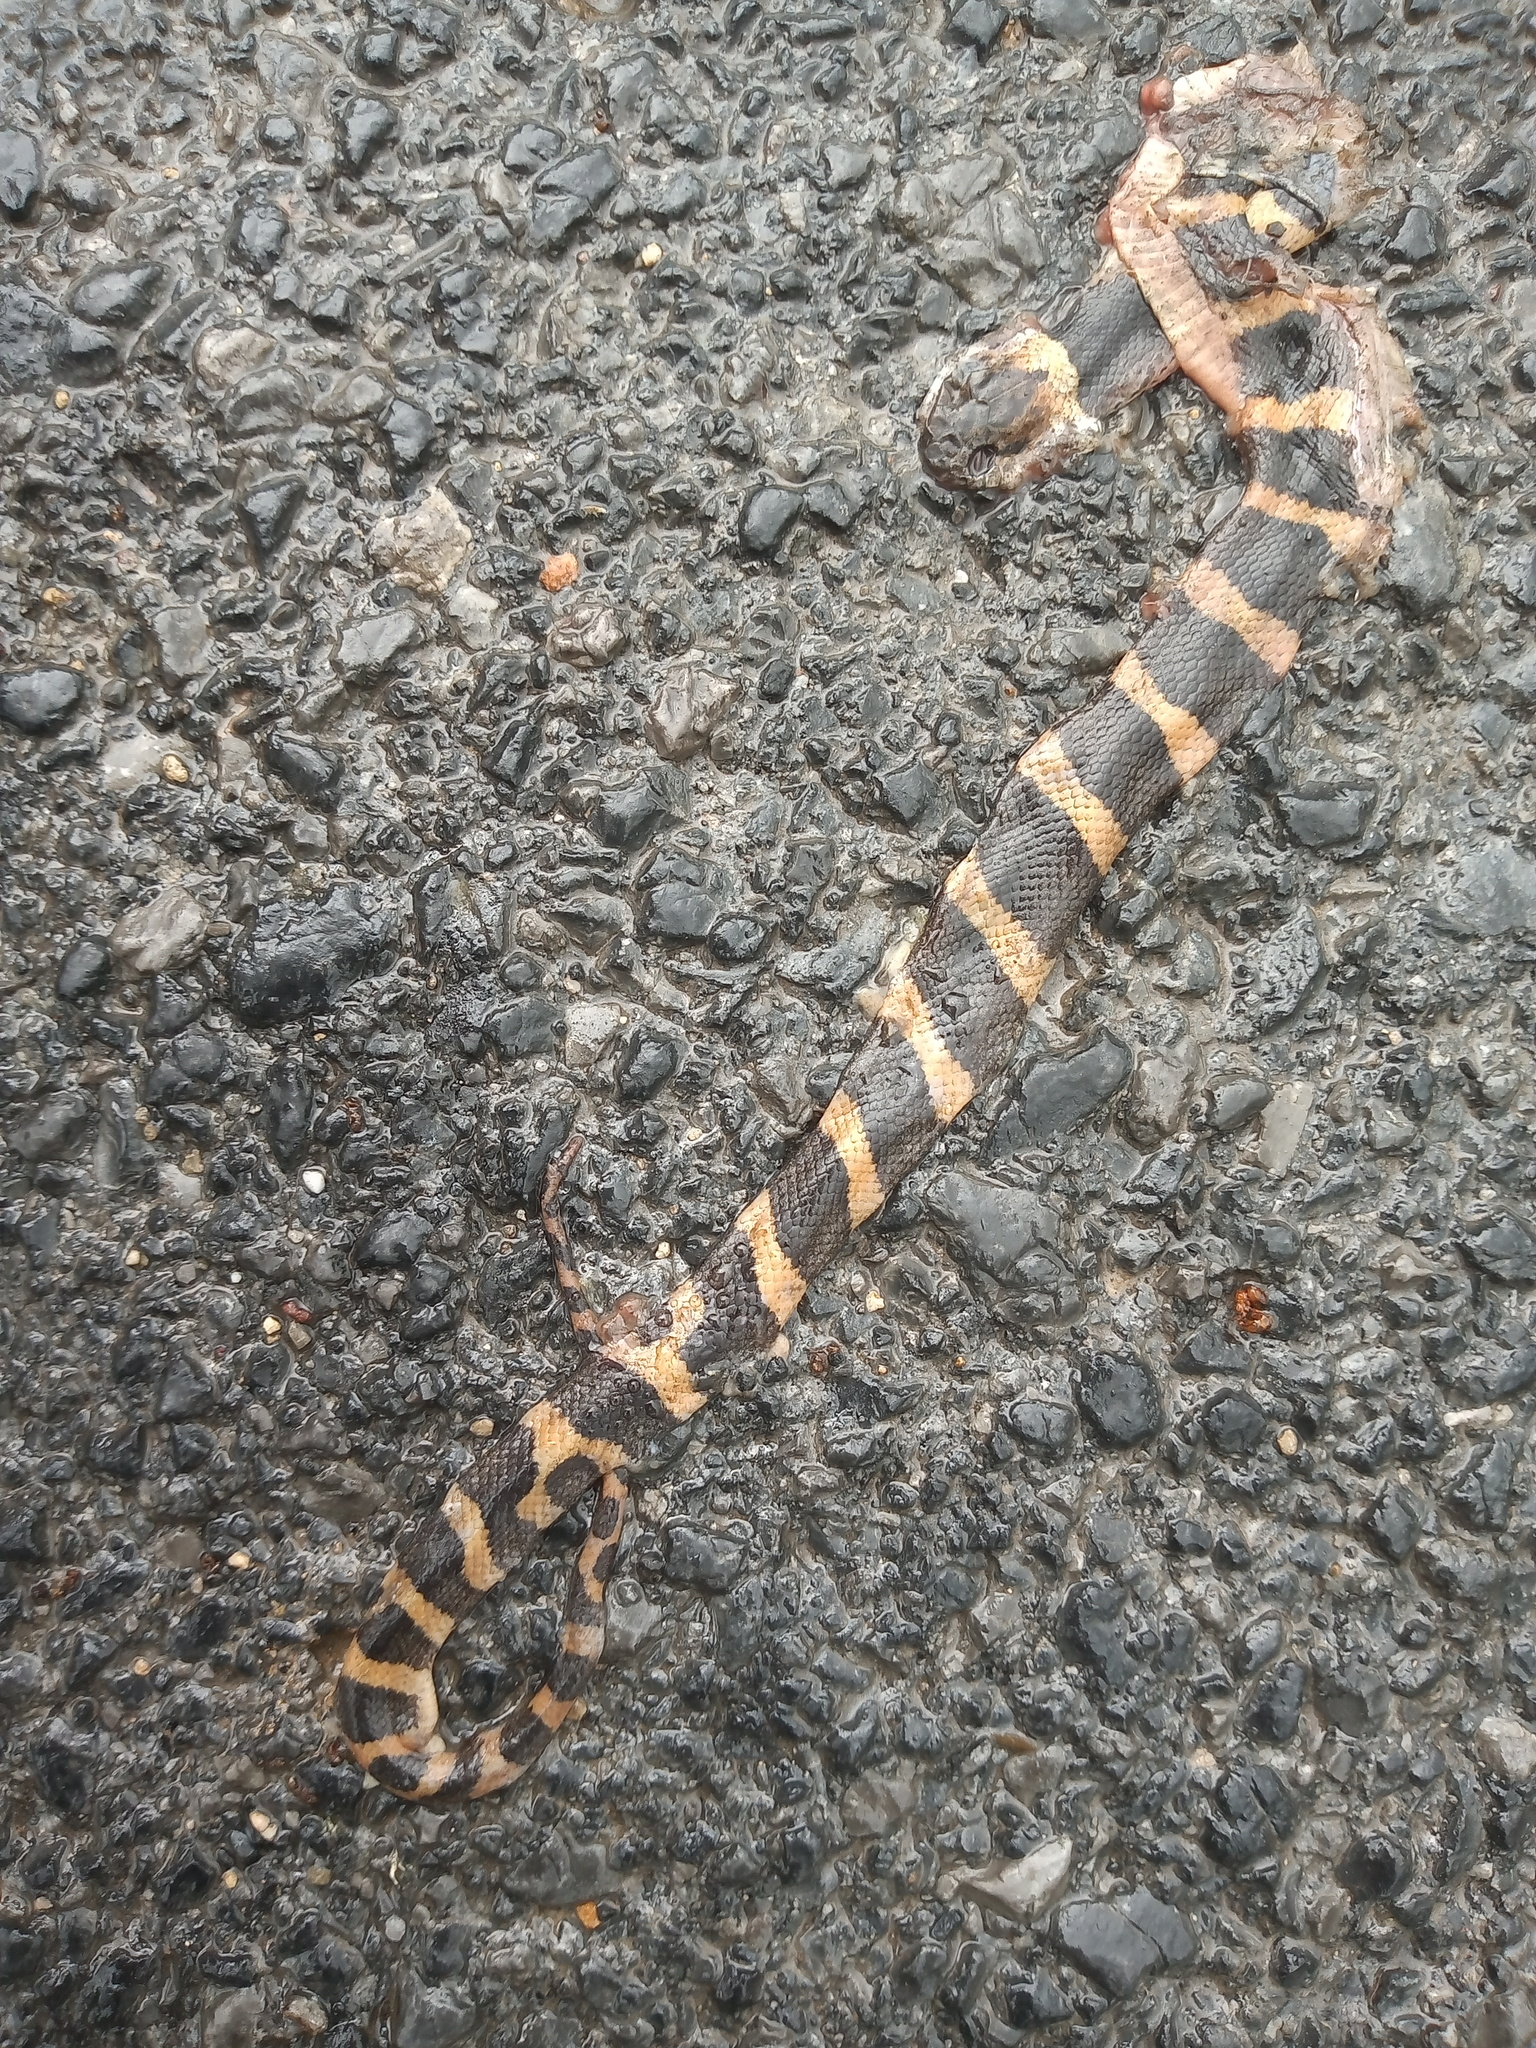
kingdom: Animalia
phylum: Chordata
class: Squamata
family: Colubridae
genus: Leptodeira
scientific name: Leptodeira septentrionalis
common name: Northern cat-eyed snake
